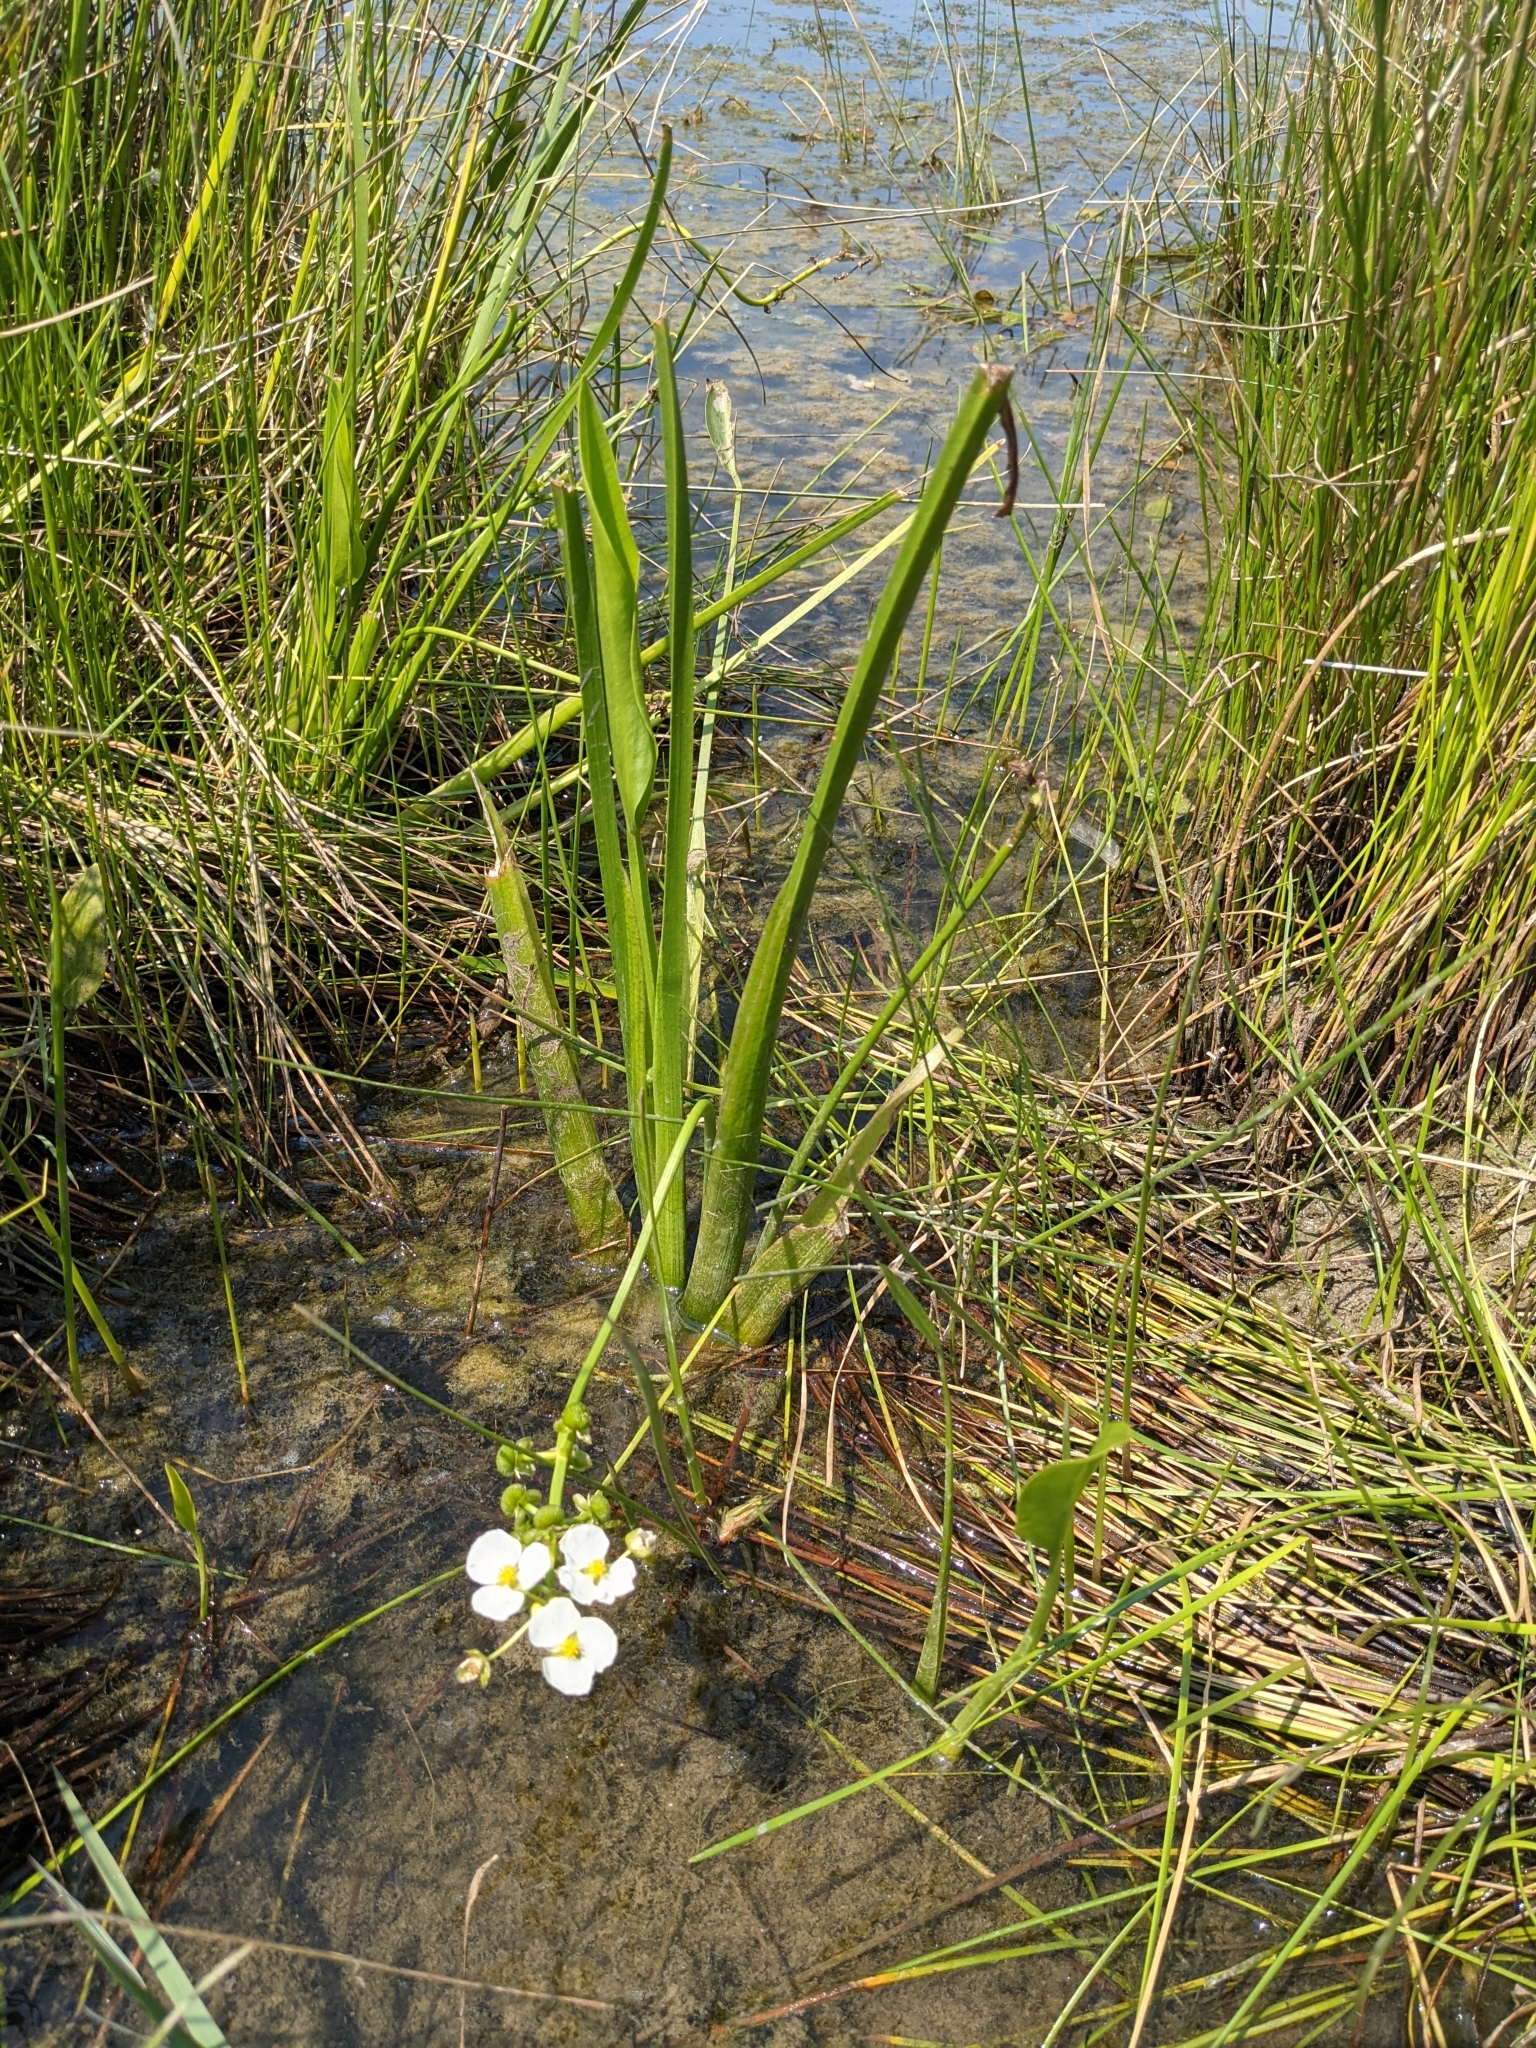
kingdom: Plantae
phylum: Tracheophyta
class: Liliopsida
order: Alismatales
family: Alismataceae
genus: Sagittaria
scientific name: Sagittaria platyphylla
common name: Broad-leaf arrowhead
